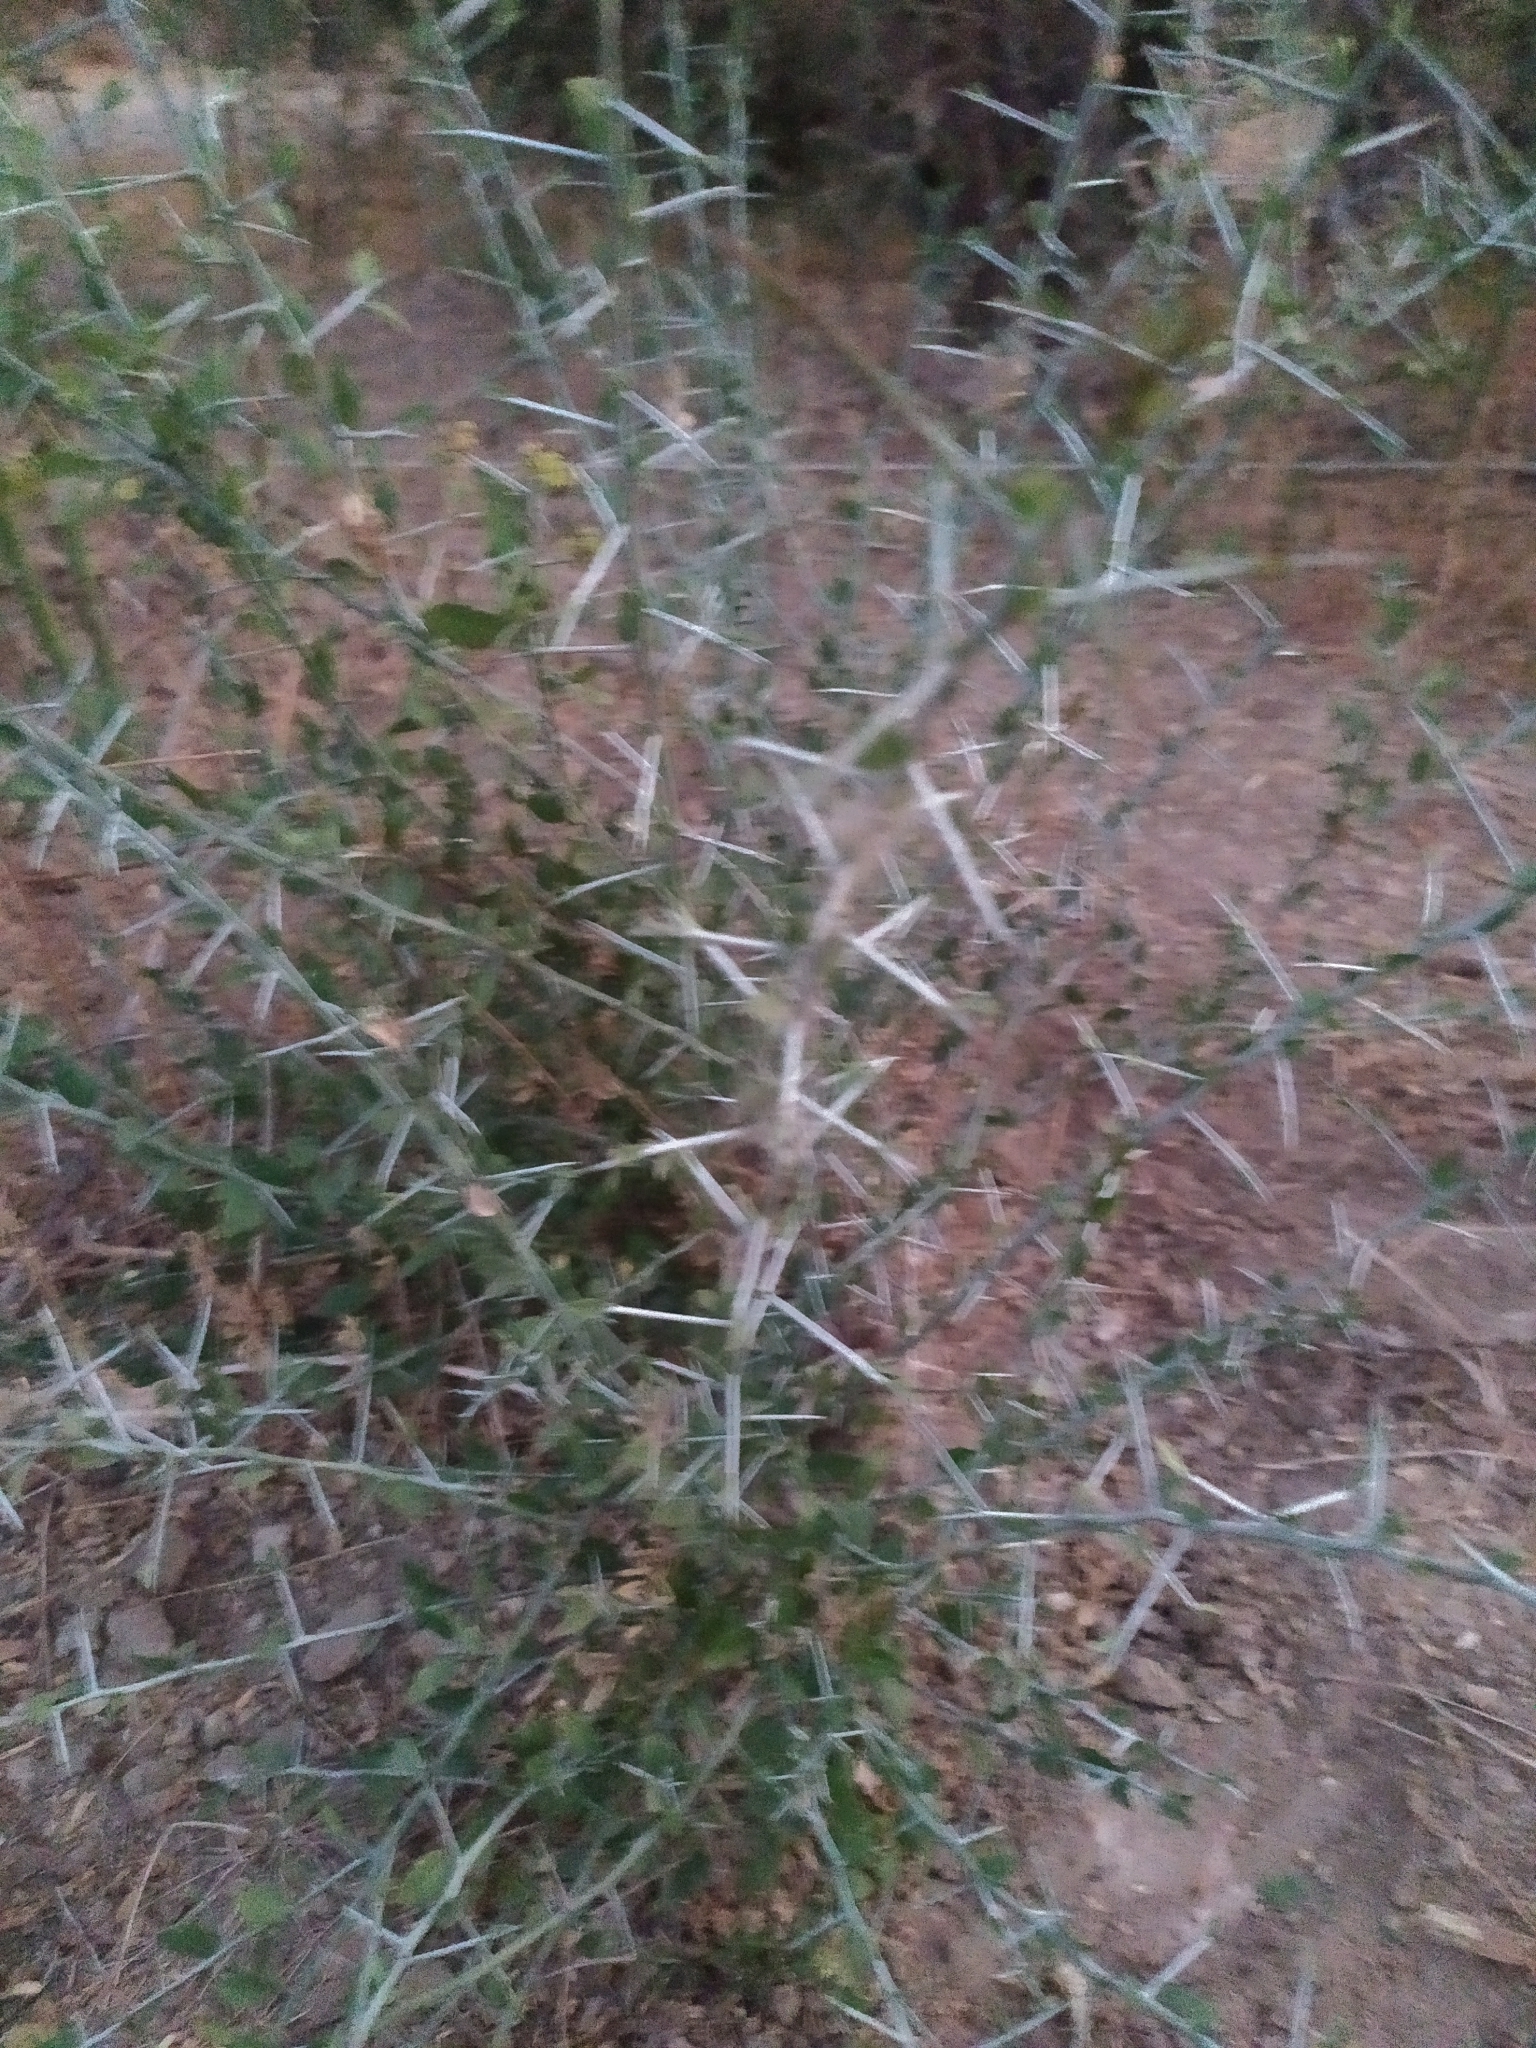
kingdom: Plantae
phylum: Tracheophyta
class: Magnoliopsida
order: Rosales
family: Rhamnaceae
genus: Sarcomphalus
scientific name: Sarcomphalus obtusifolius
